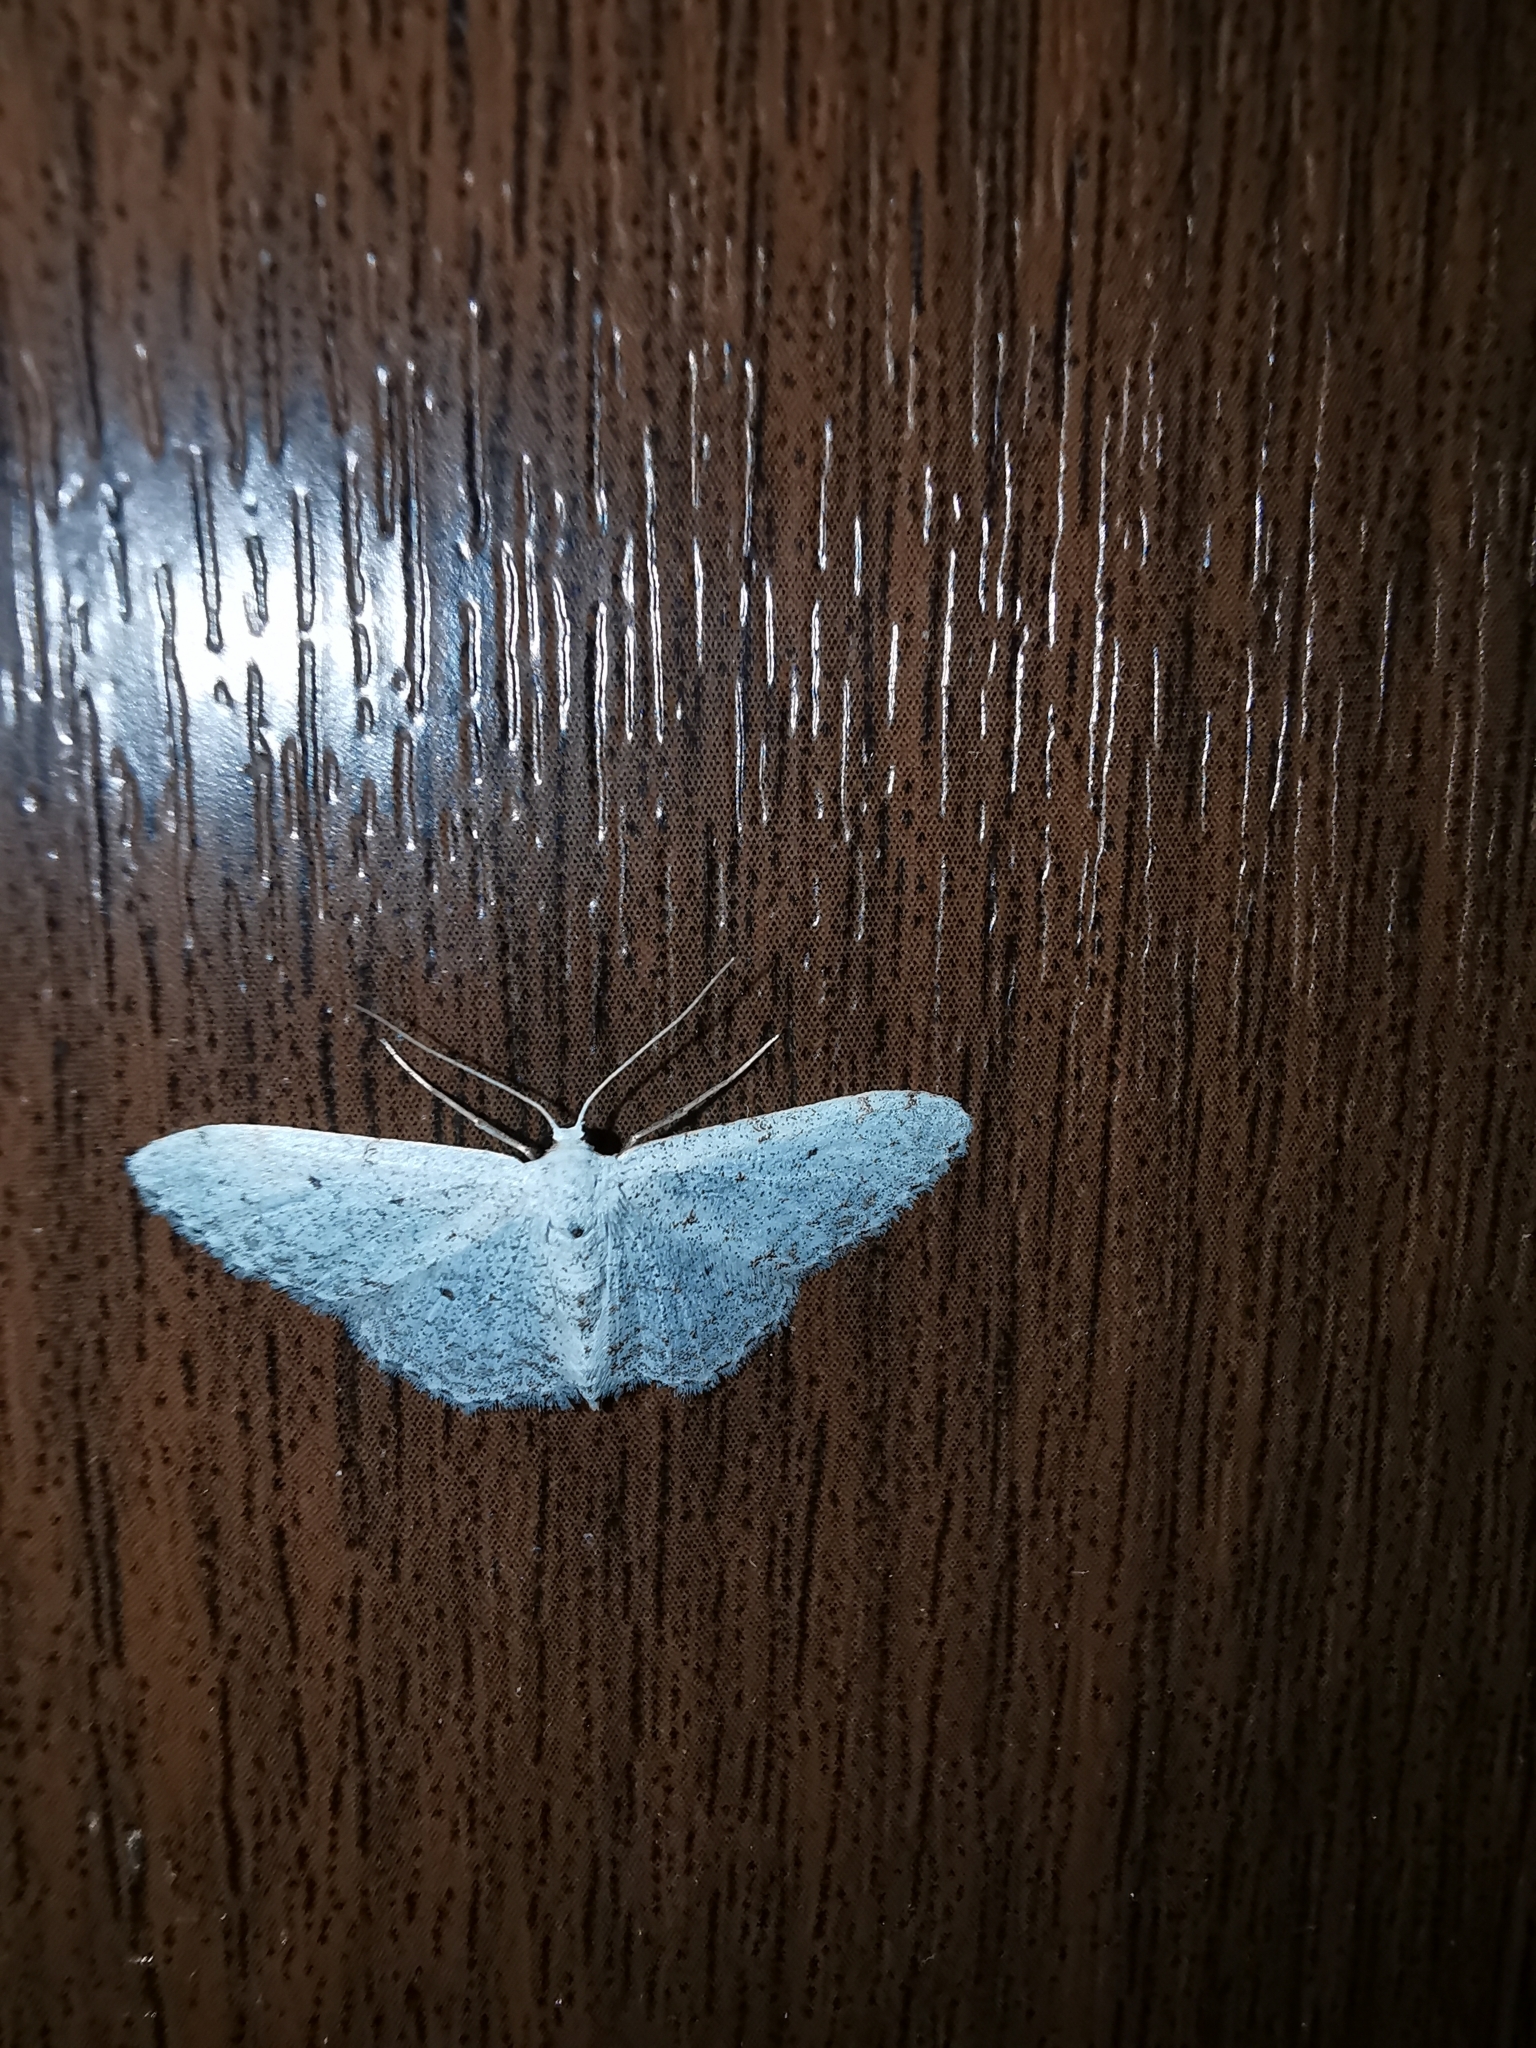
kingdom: Animalia
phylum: Arthropoda
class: Insecta
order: Lepidoptera
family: Geometridae
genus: Idaea
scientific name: Idaea metohiensis
